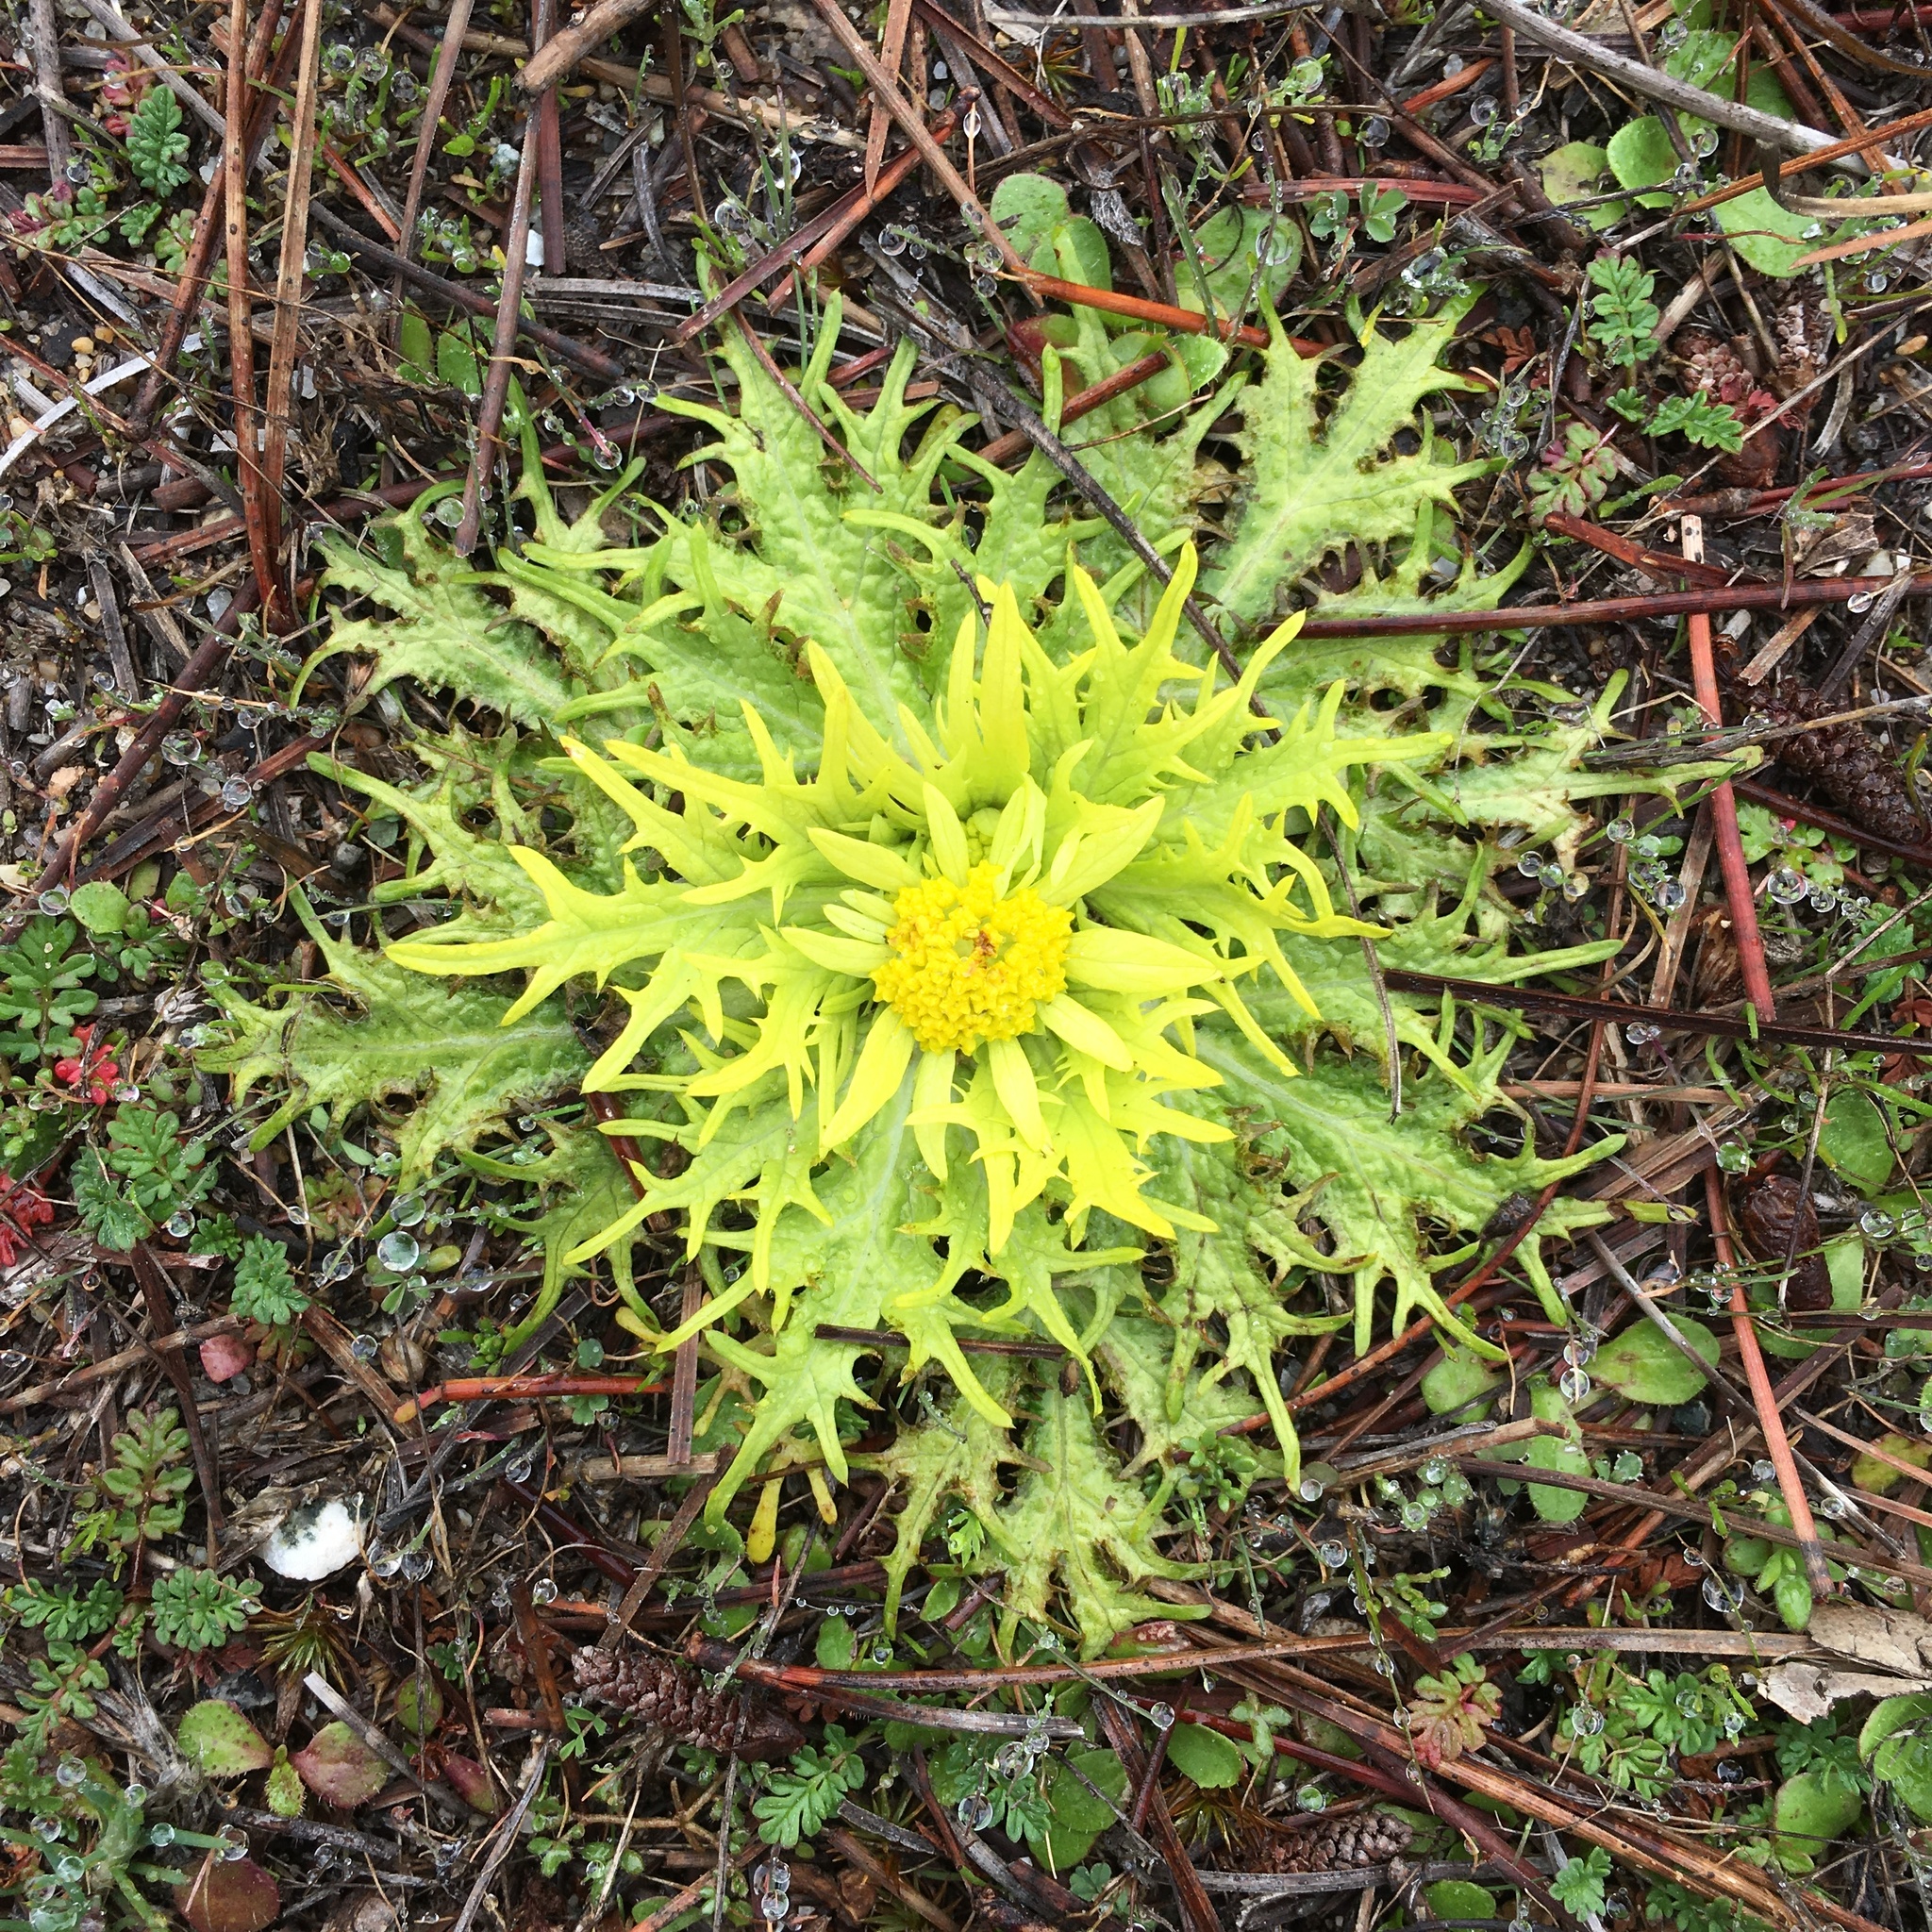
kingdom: Plantae
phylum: Tracheophyta
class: Magnoliopsida
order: Apiales
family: Apiaceae
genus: Sanicula
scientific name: Sanicula arctopoides
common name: Footsteps-of-spring
